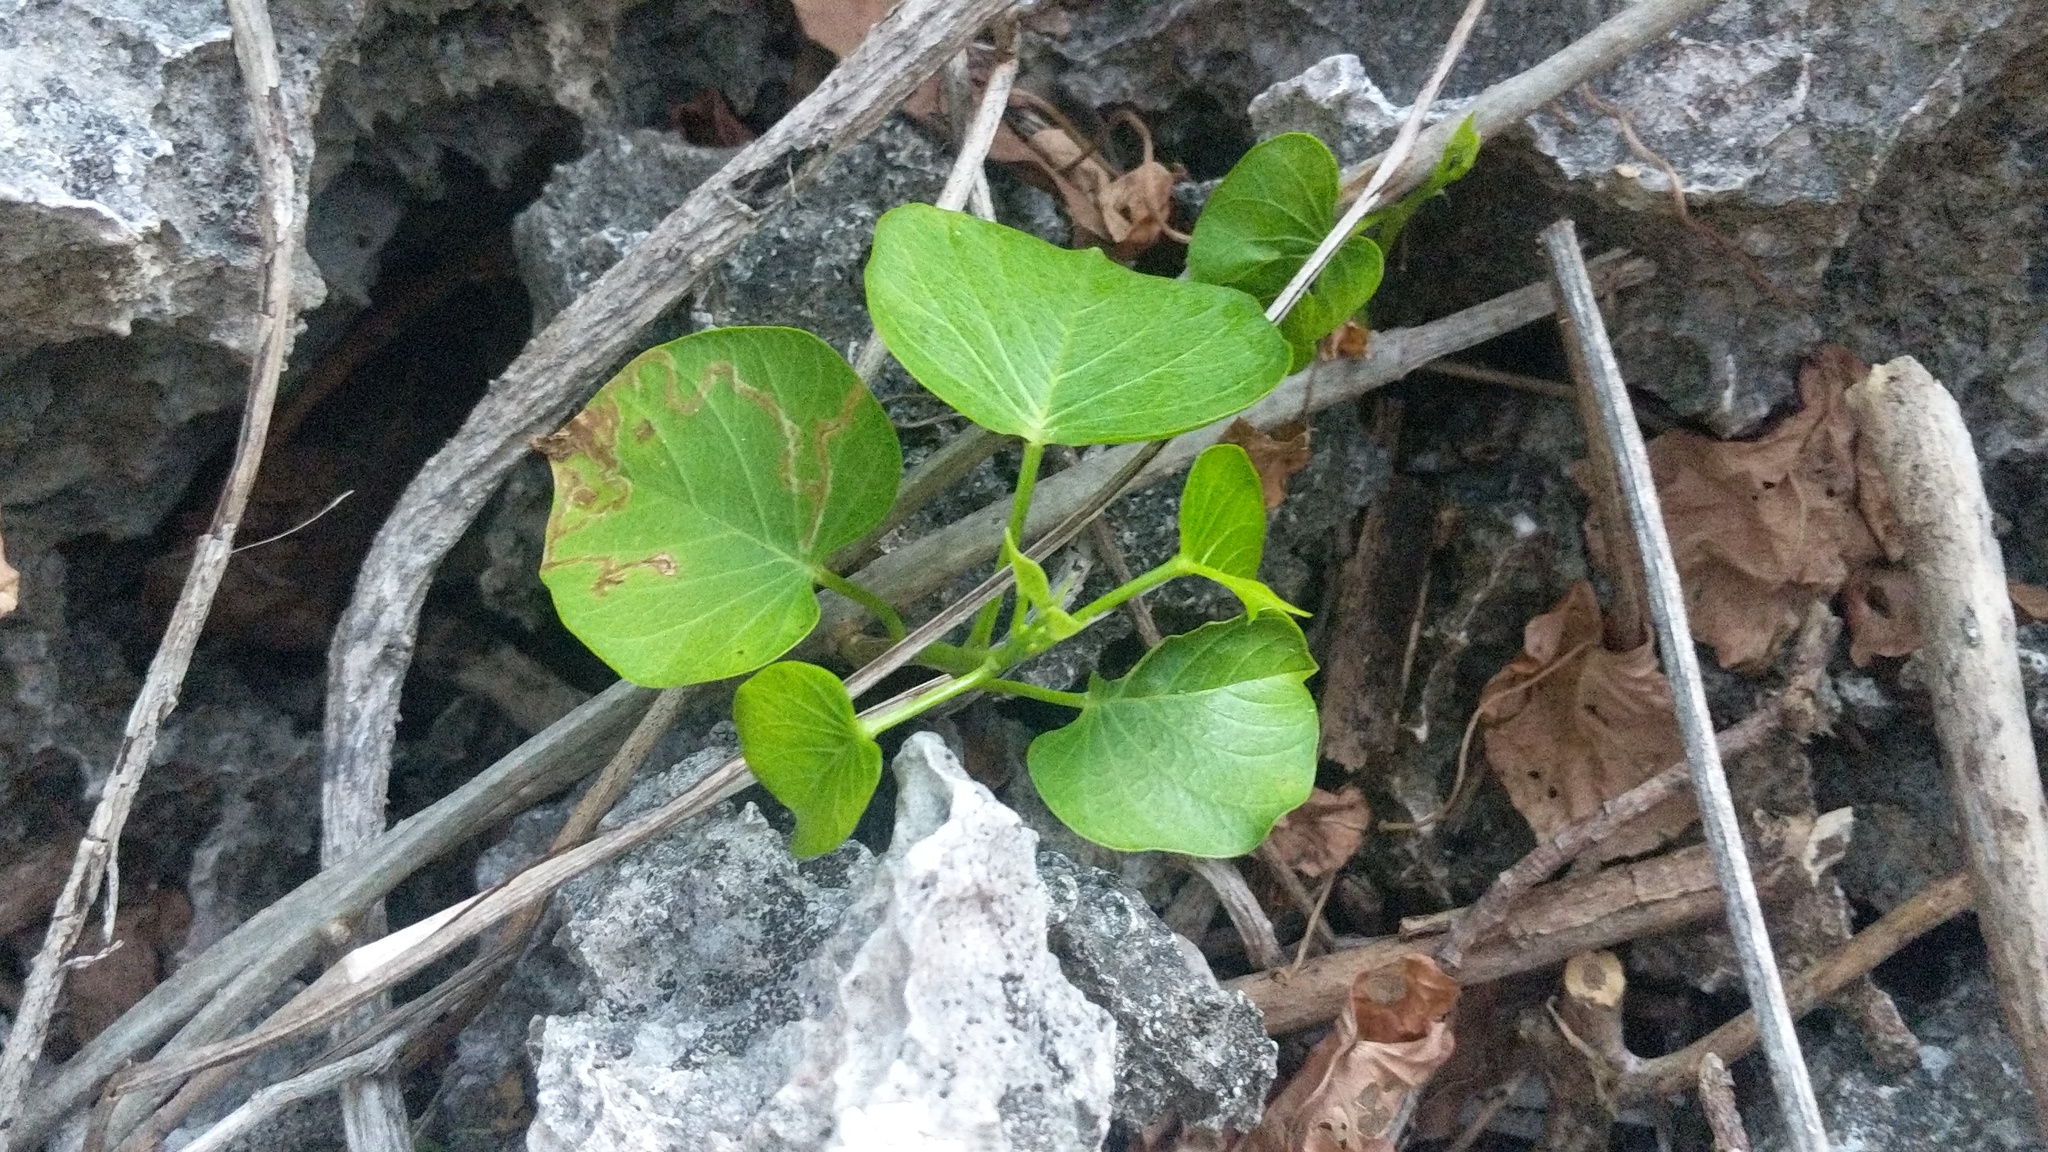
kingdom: Plantae
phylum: Tracheophyta
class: Magnoliopsida
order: Solanales
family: Convolvulaceae
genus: Ipomoea
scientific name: Ipomoea violacea
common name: Beach moonflower
